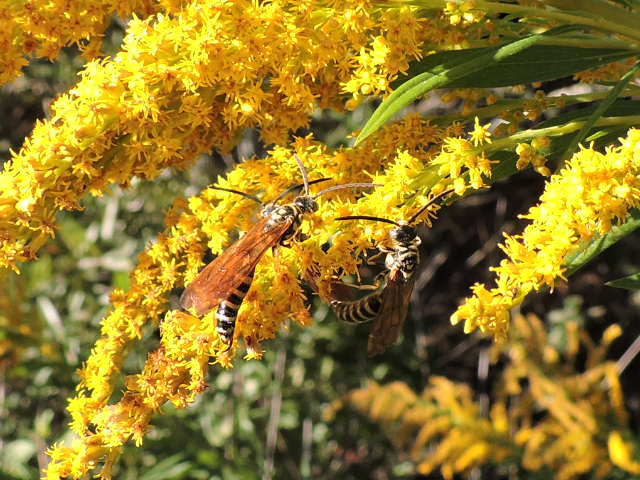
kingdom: Animalia
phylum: Arthropoda
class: Insecta
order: Hymenoptera
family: Tiphiidae
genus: Myzinum
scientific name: Myzinum quinquecinctum
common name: Five-banded thynnid wasp
